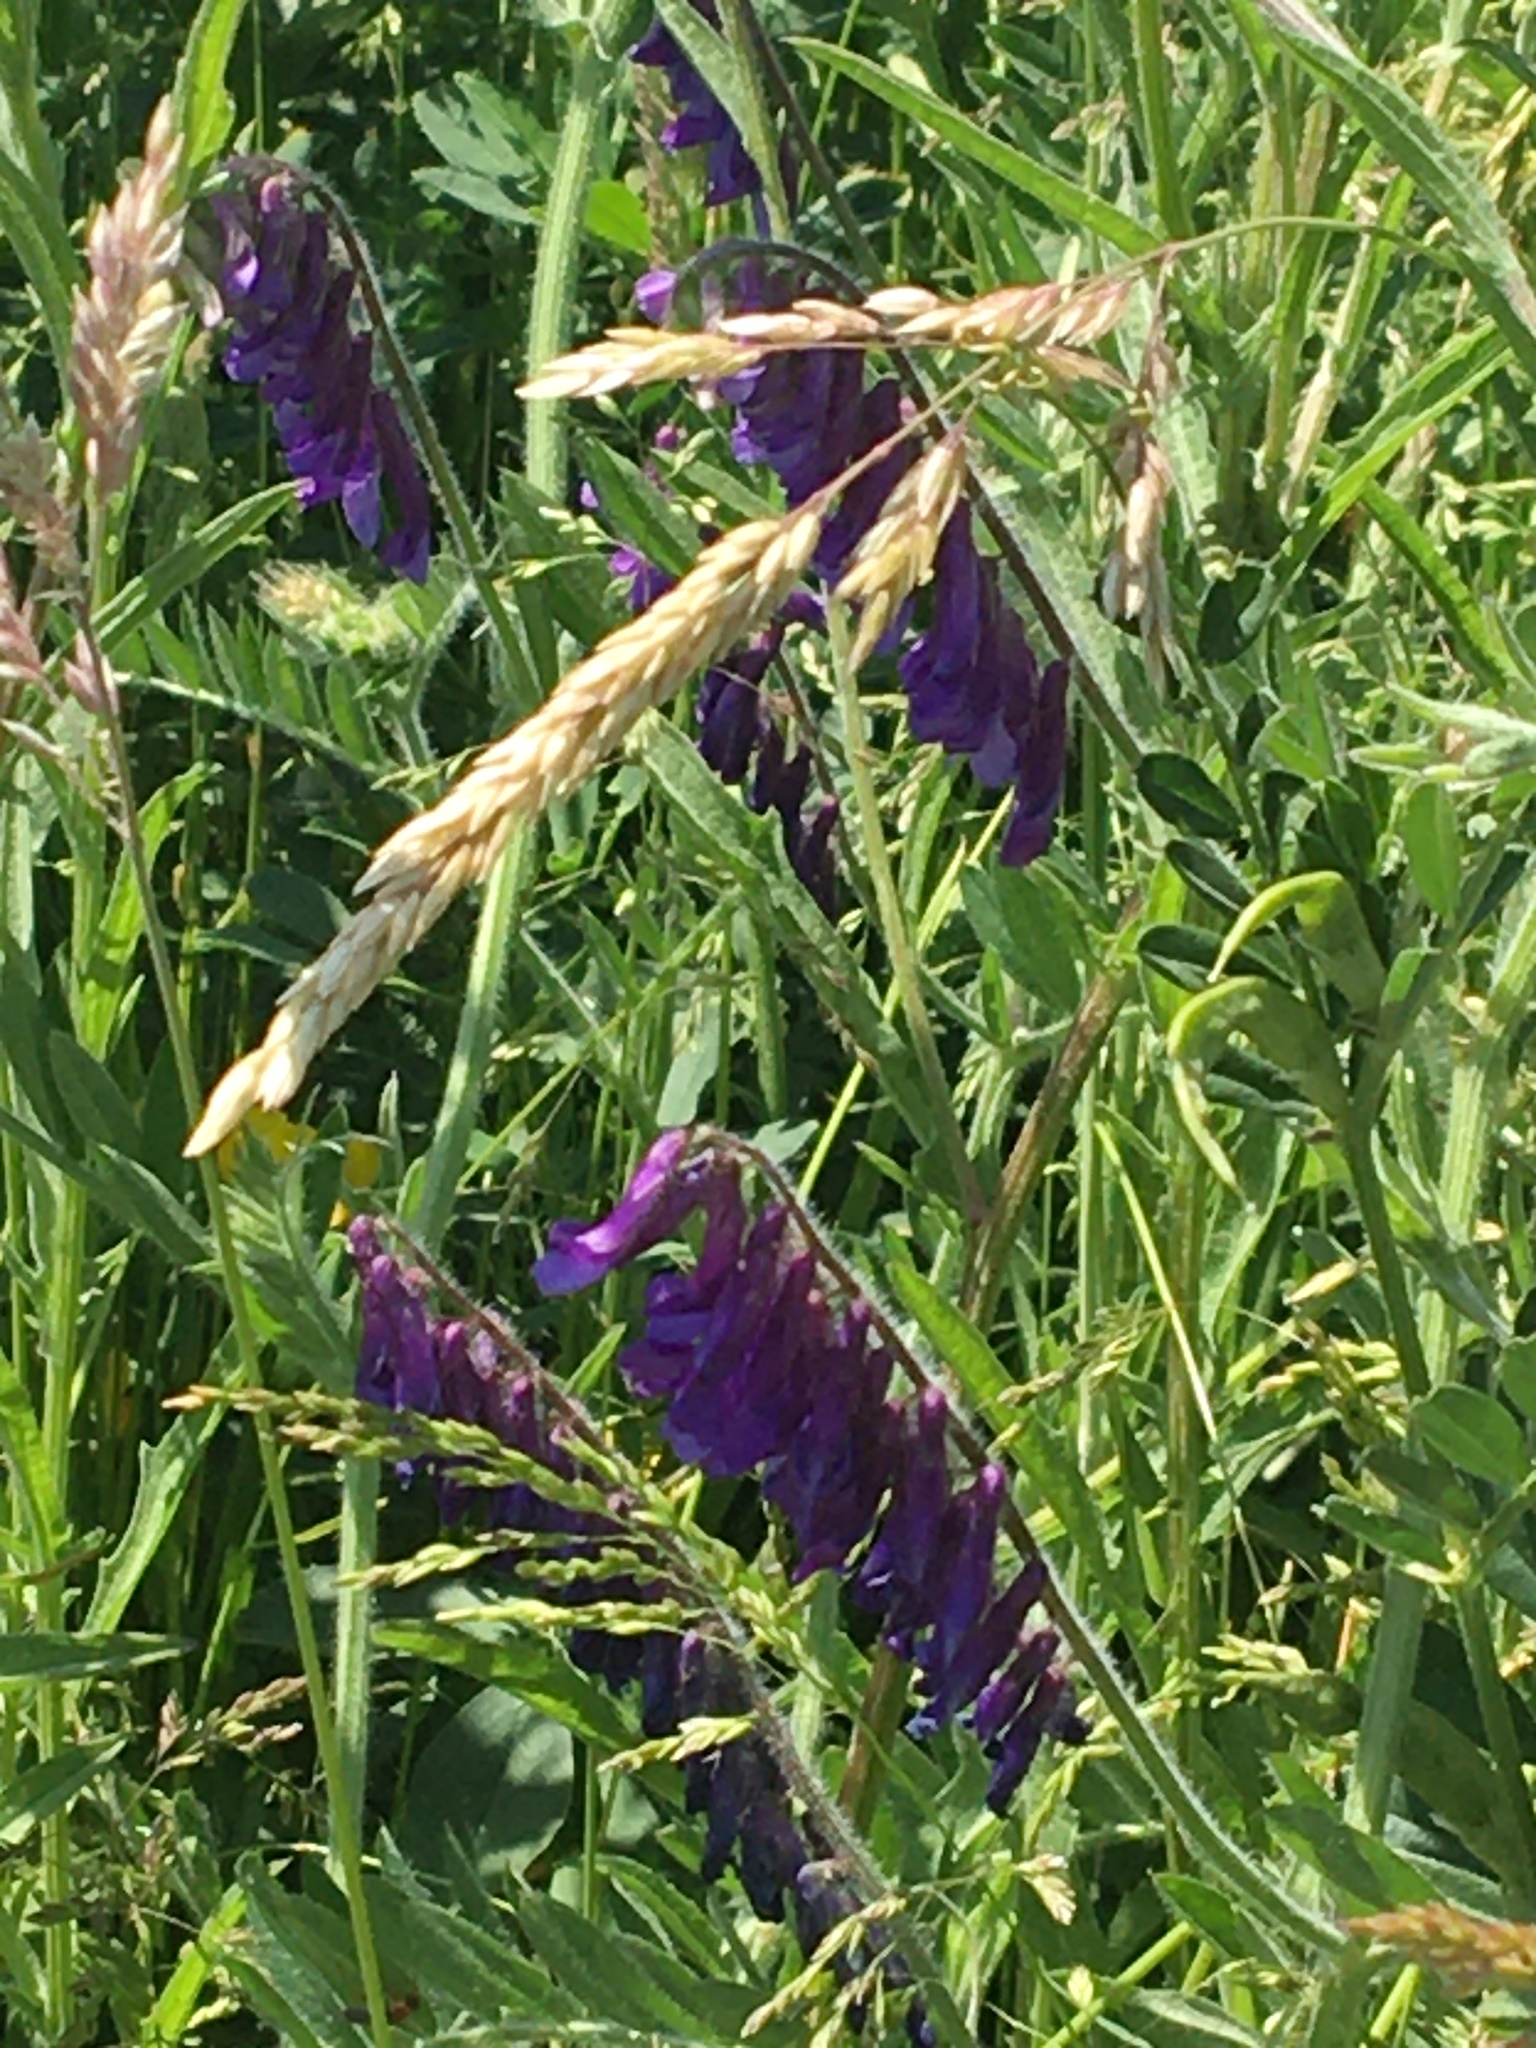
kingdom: Plantae
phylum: Tracheophyta
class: Magnoliopsida
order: Fabales
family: Fabaceae
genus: Vicia
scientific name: Vicia villosa
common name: Fodder vetch
